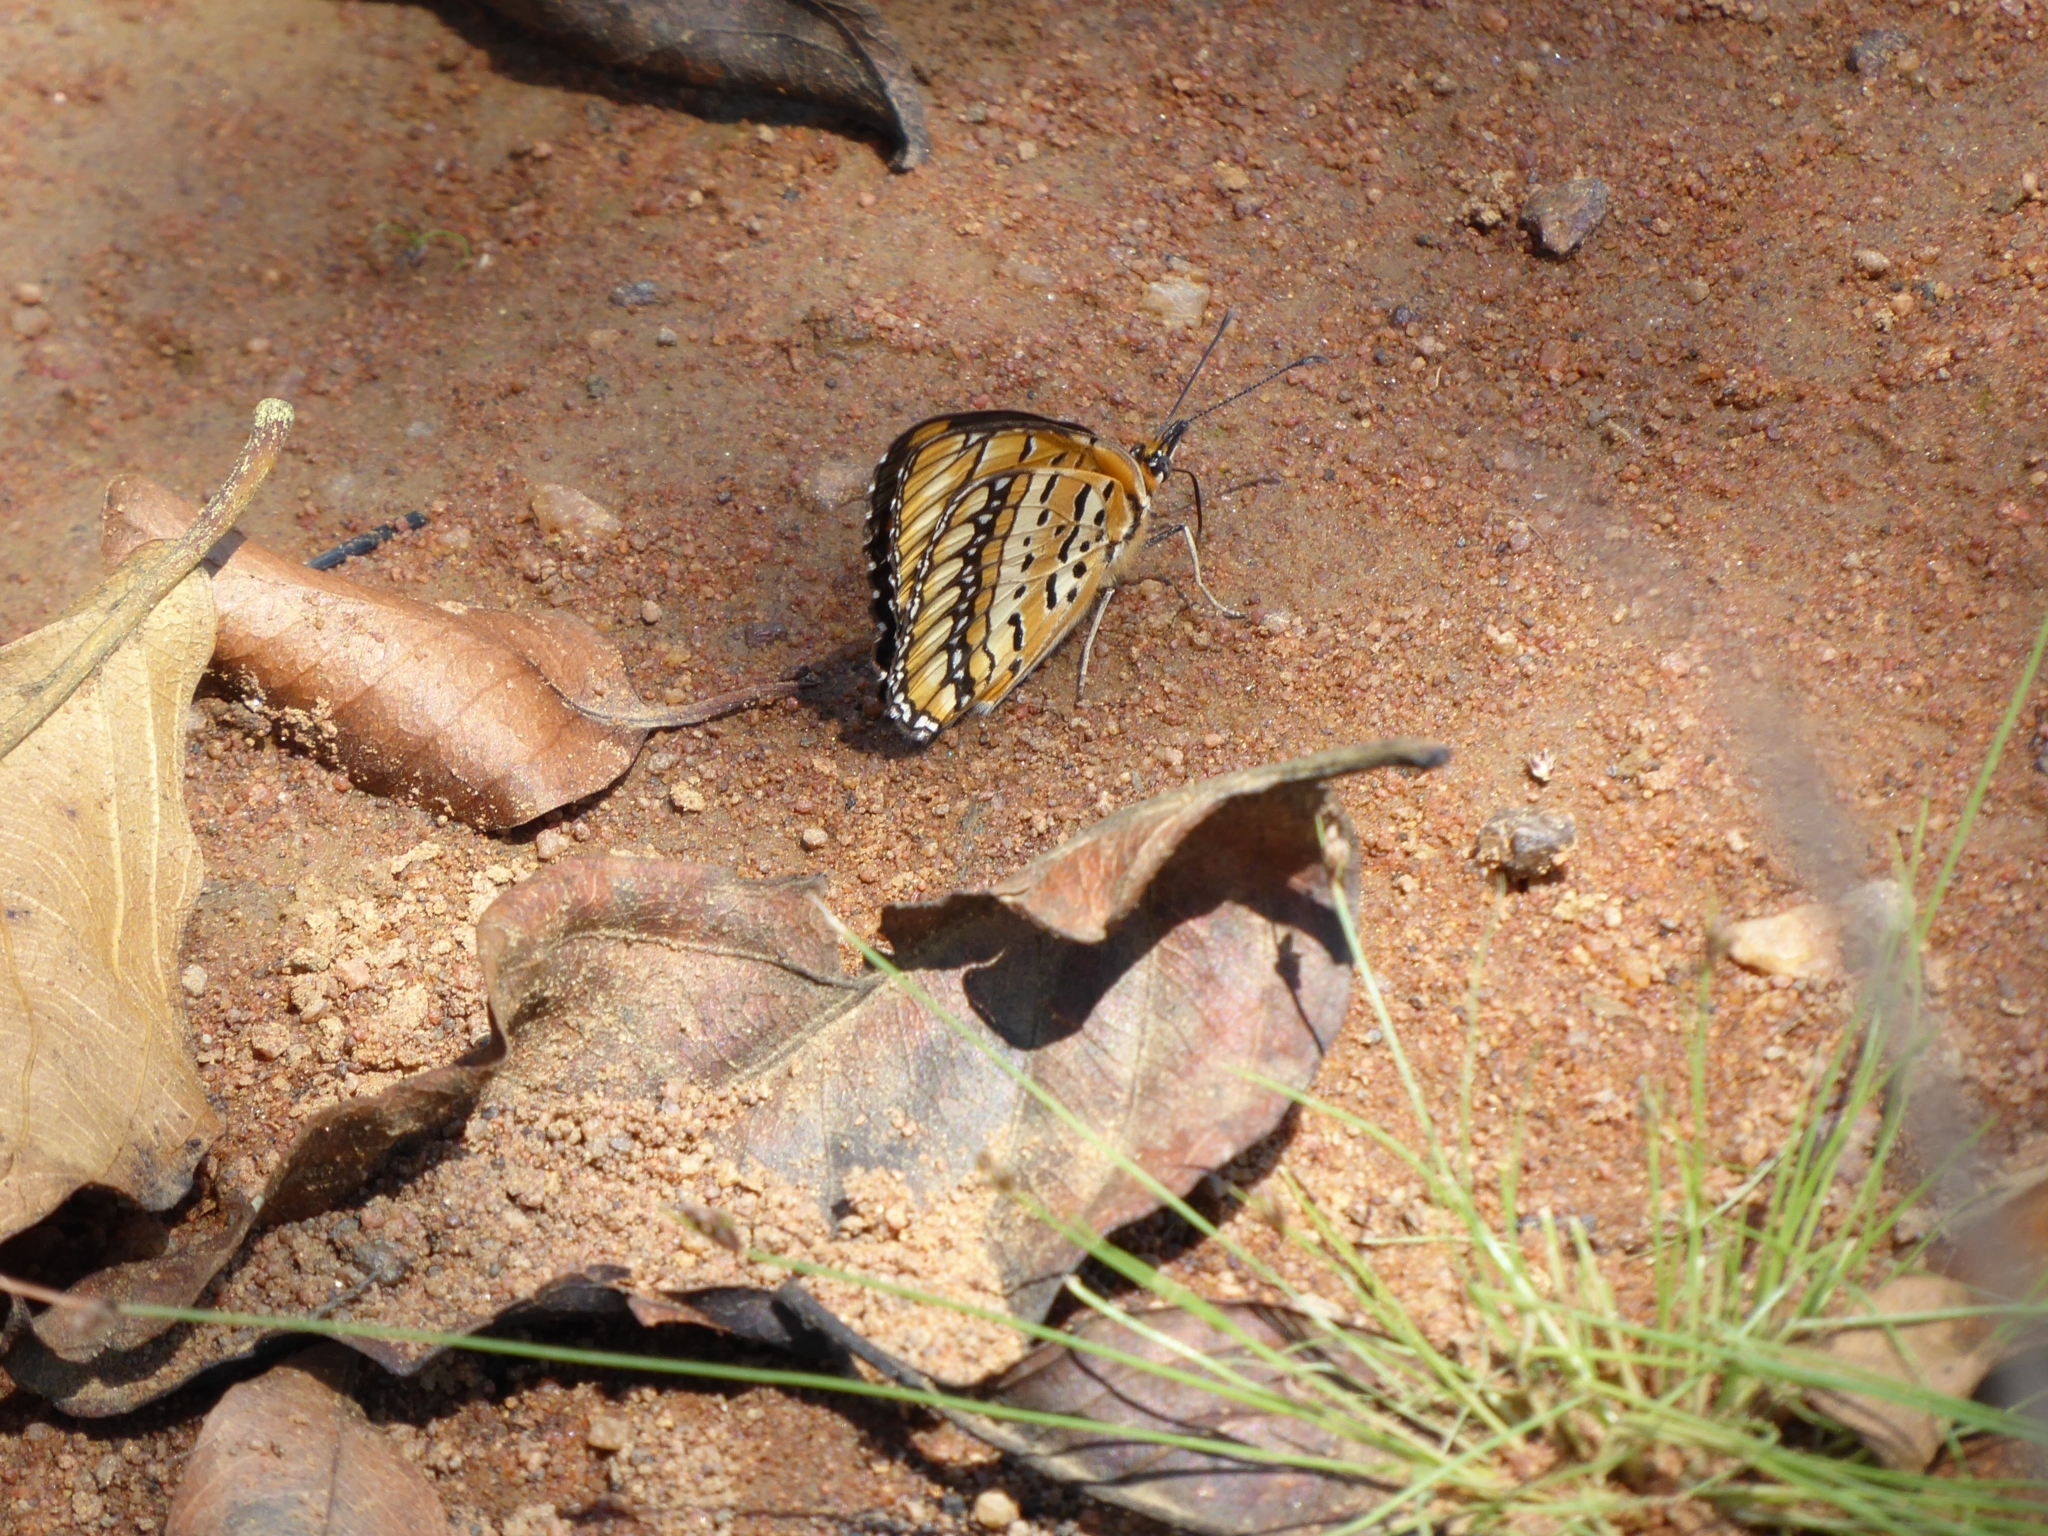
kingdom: Animalia
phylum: Arthropoda
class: Insecta
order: Lepidoptera
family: Nymphalidae
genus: Byblia
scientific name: Byblia ilithyia
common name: Spotted joker
